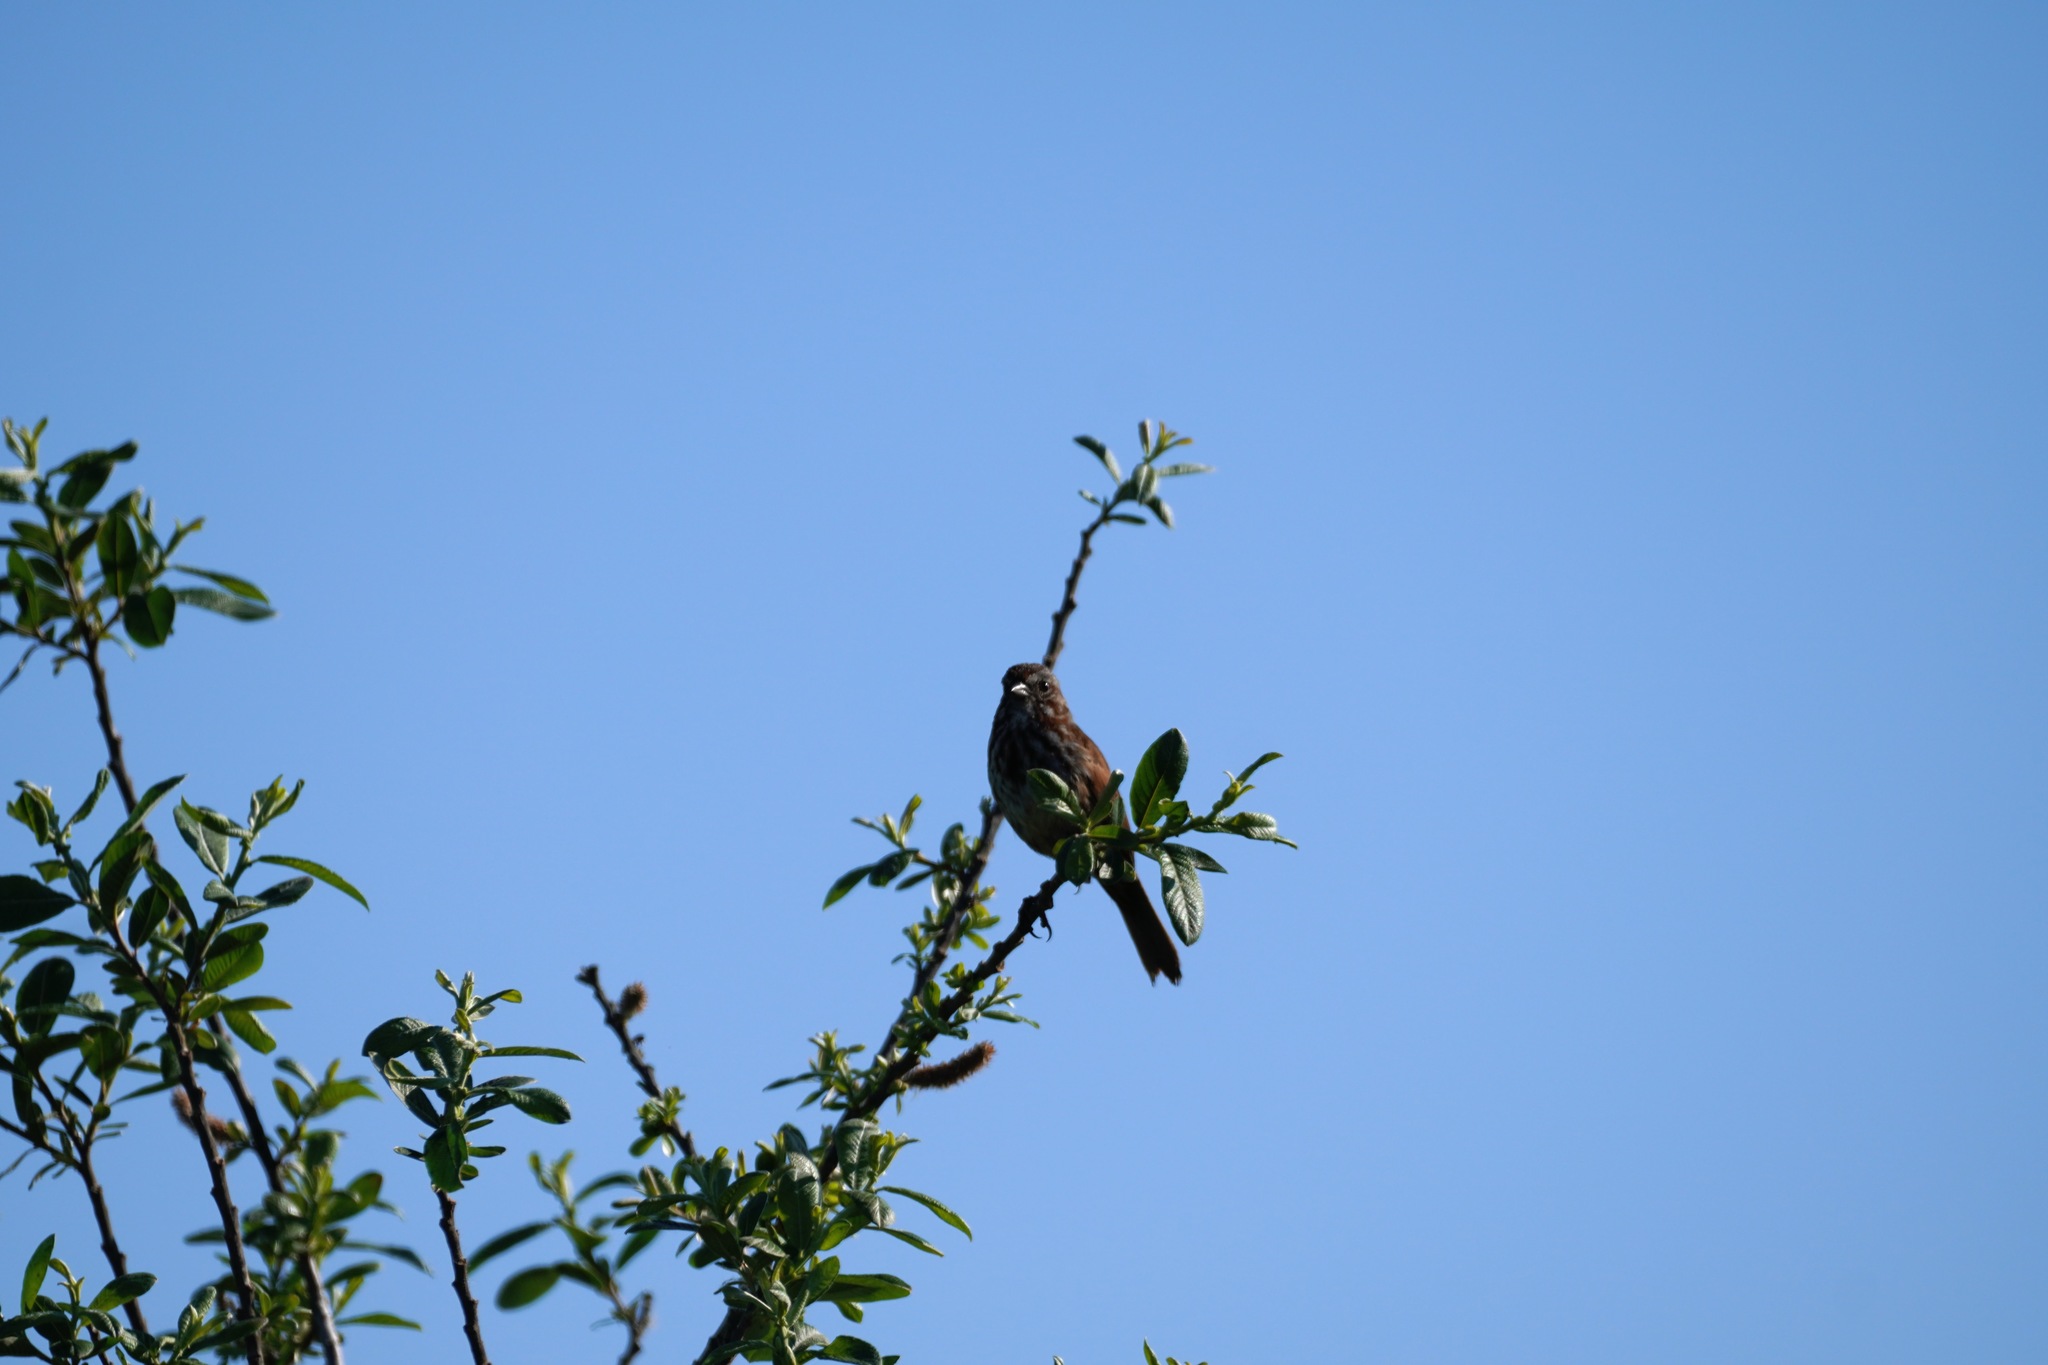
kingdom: Animalia
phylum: Chordata
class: Aves
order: Passeriformes
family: Passerellidae
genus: Melospiza
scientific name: Melospiza melodia
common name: Song sparrow
